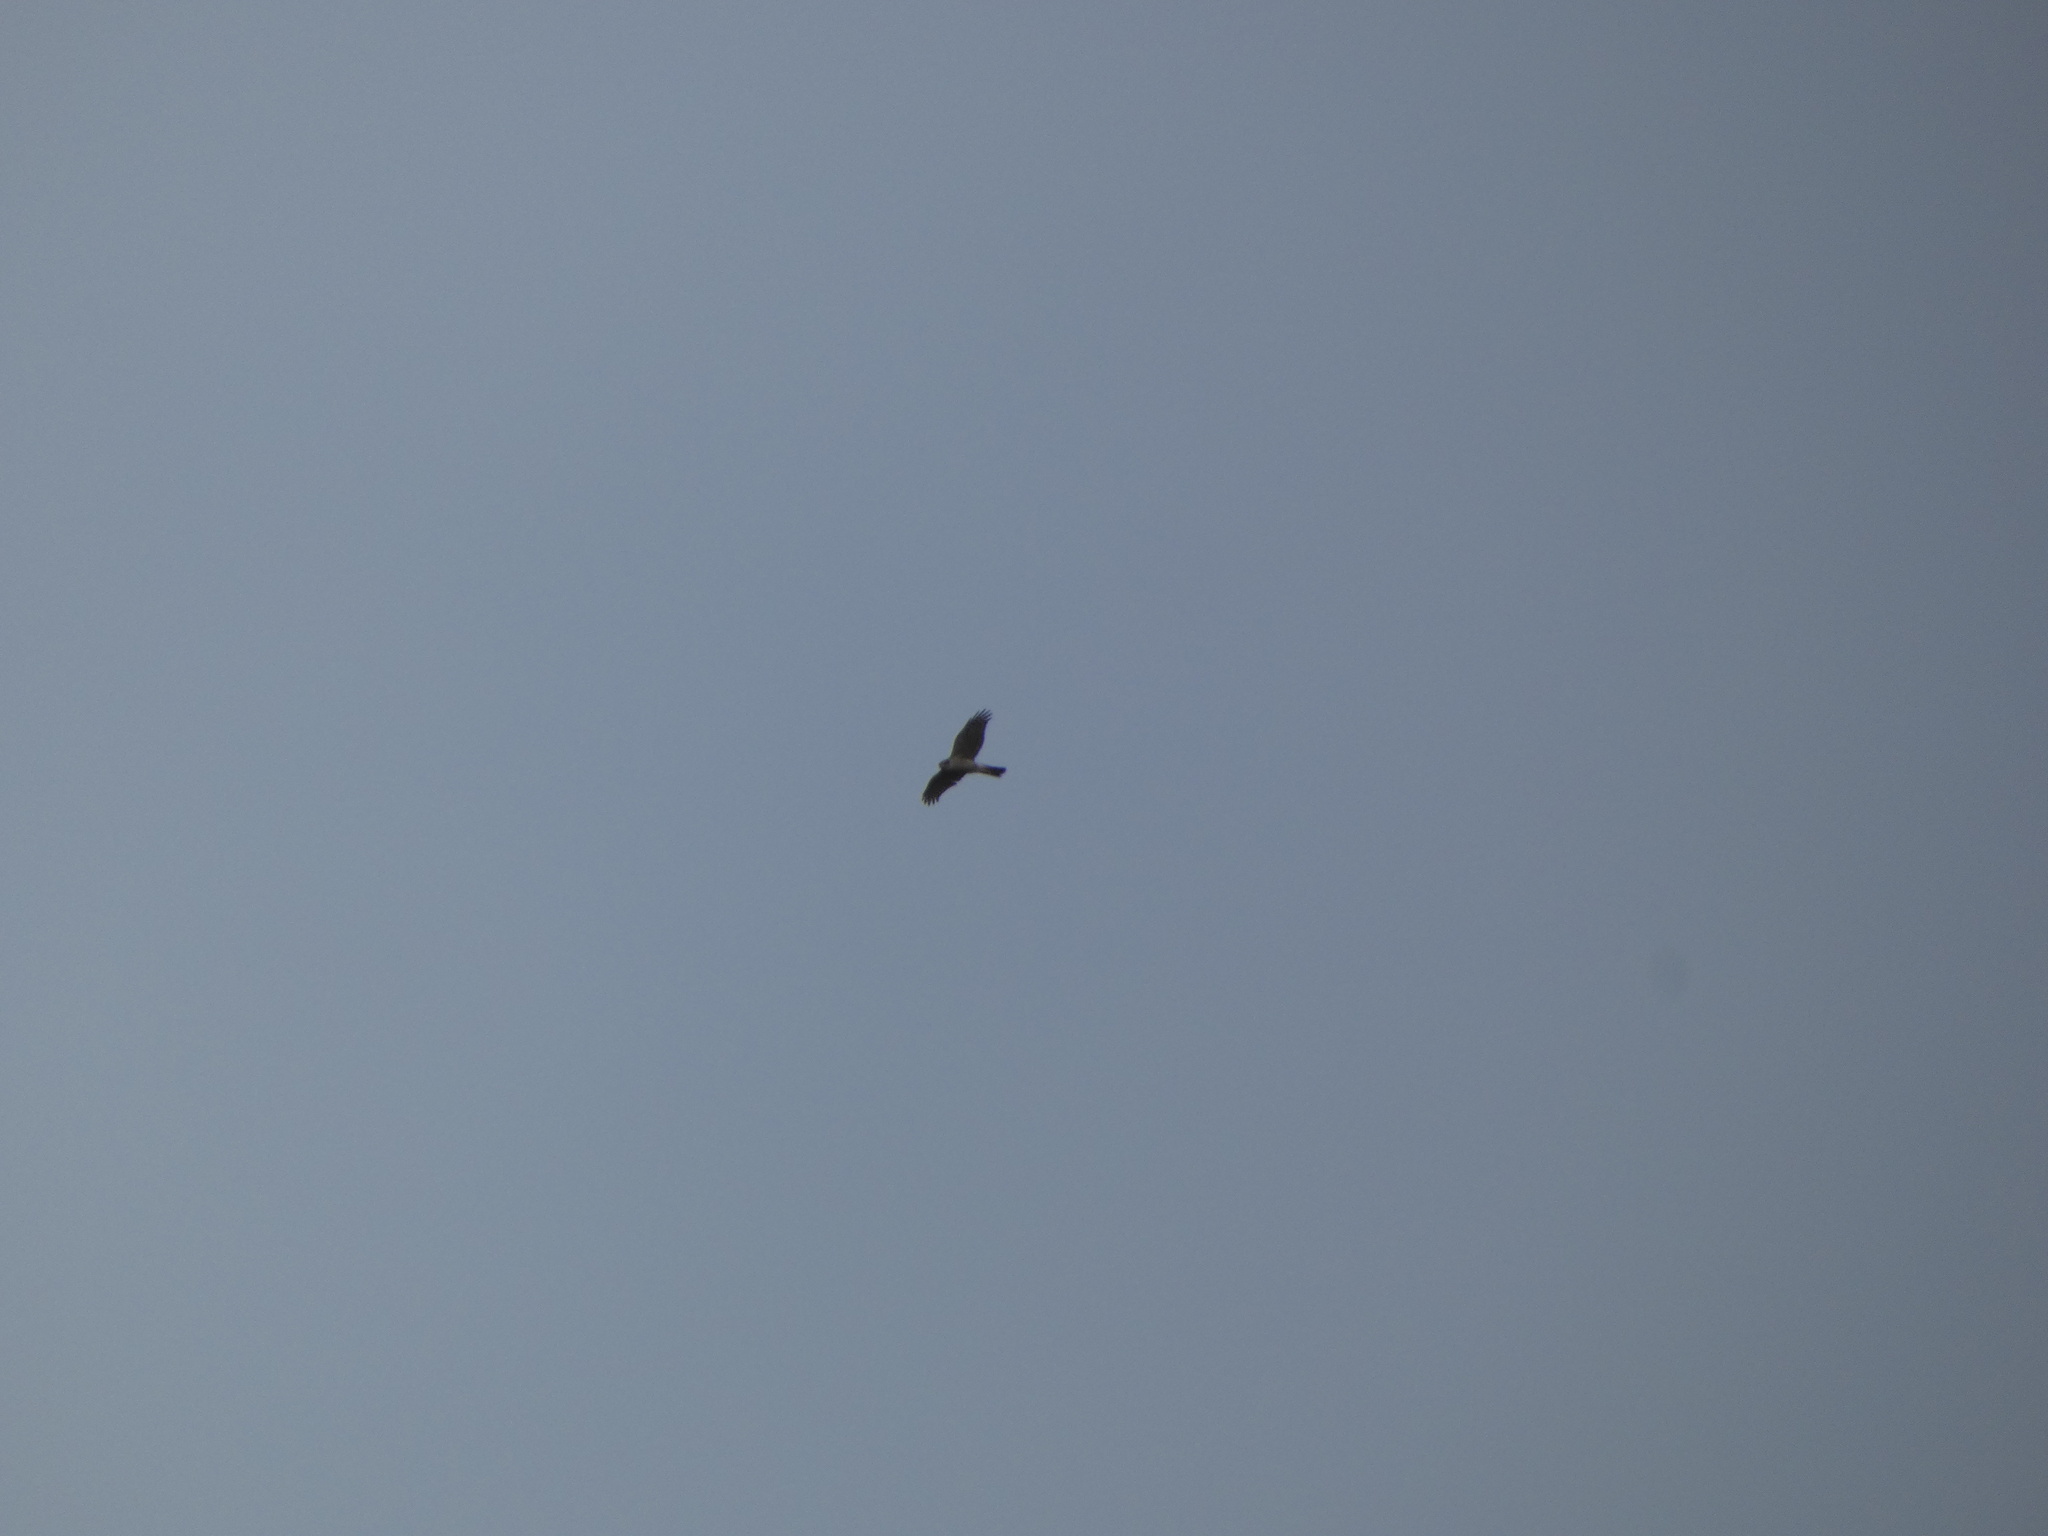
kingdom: Animalia
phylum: Chordata
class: Aves
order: Accipitriformes
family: Accipitridae
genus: Accipiter
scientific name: Accipiter nisus
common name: Eurasian sparrowhawk
